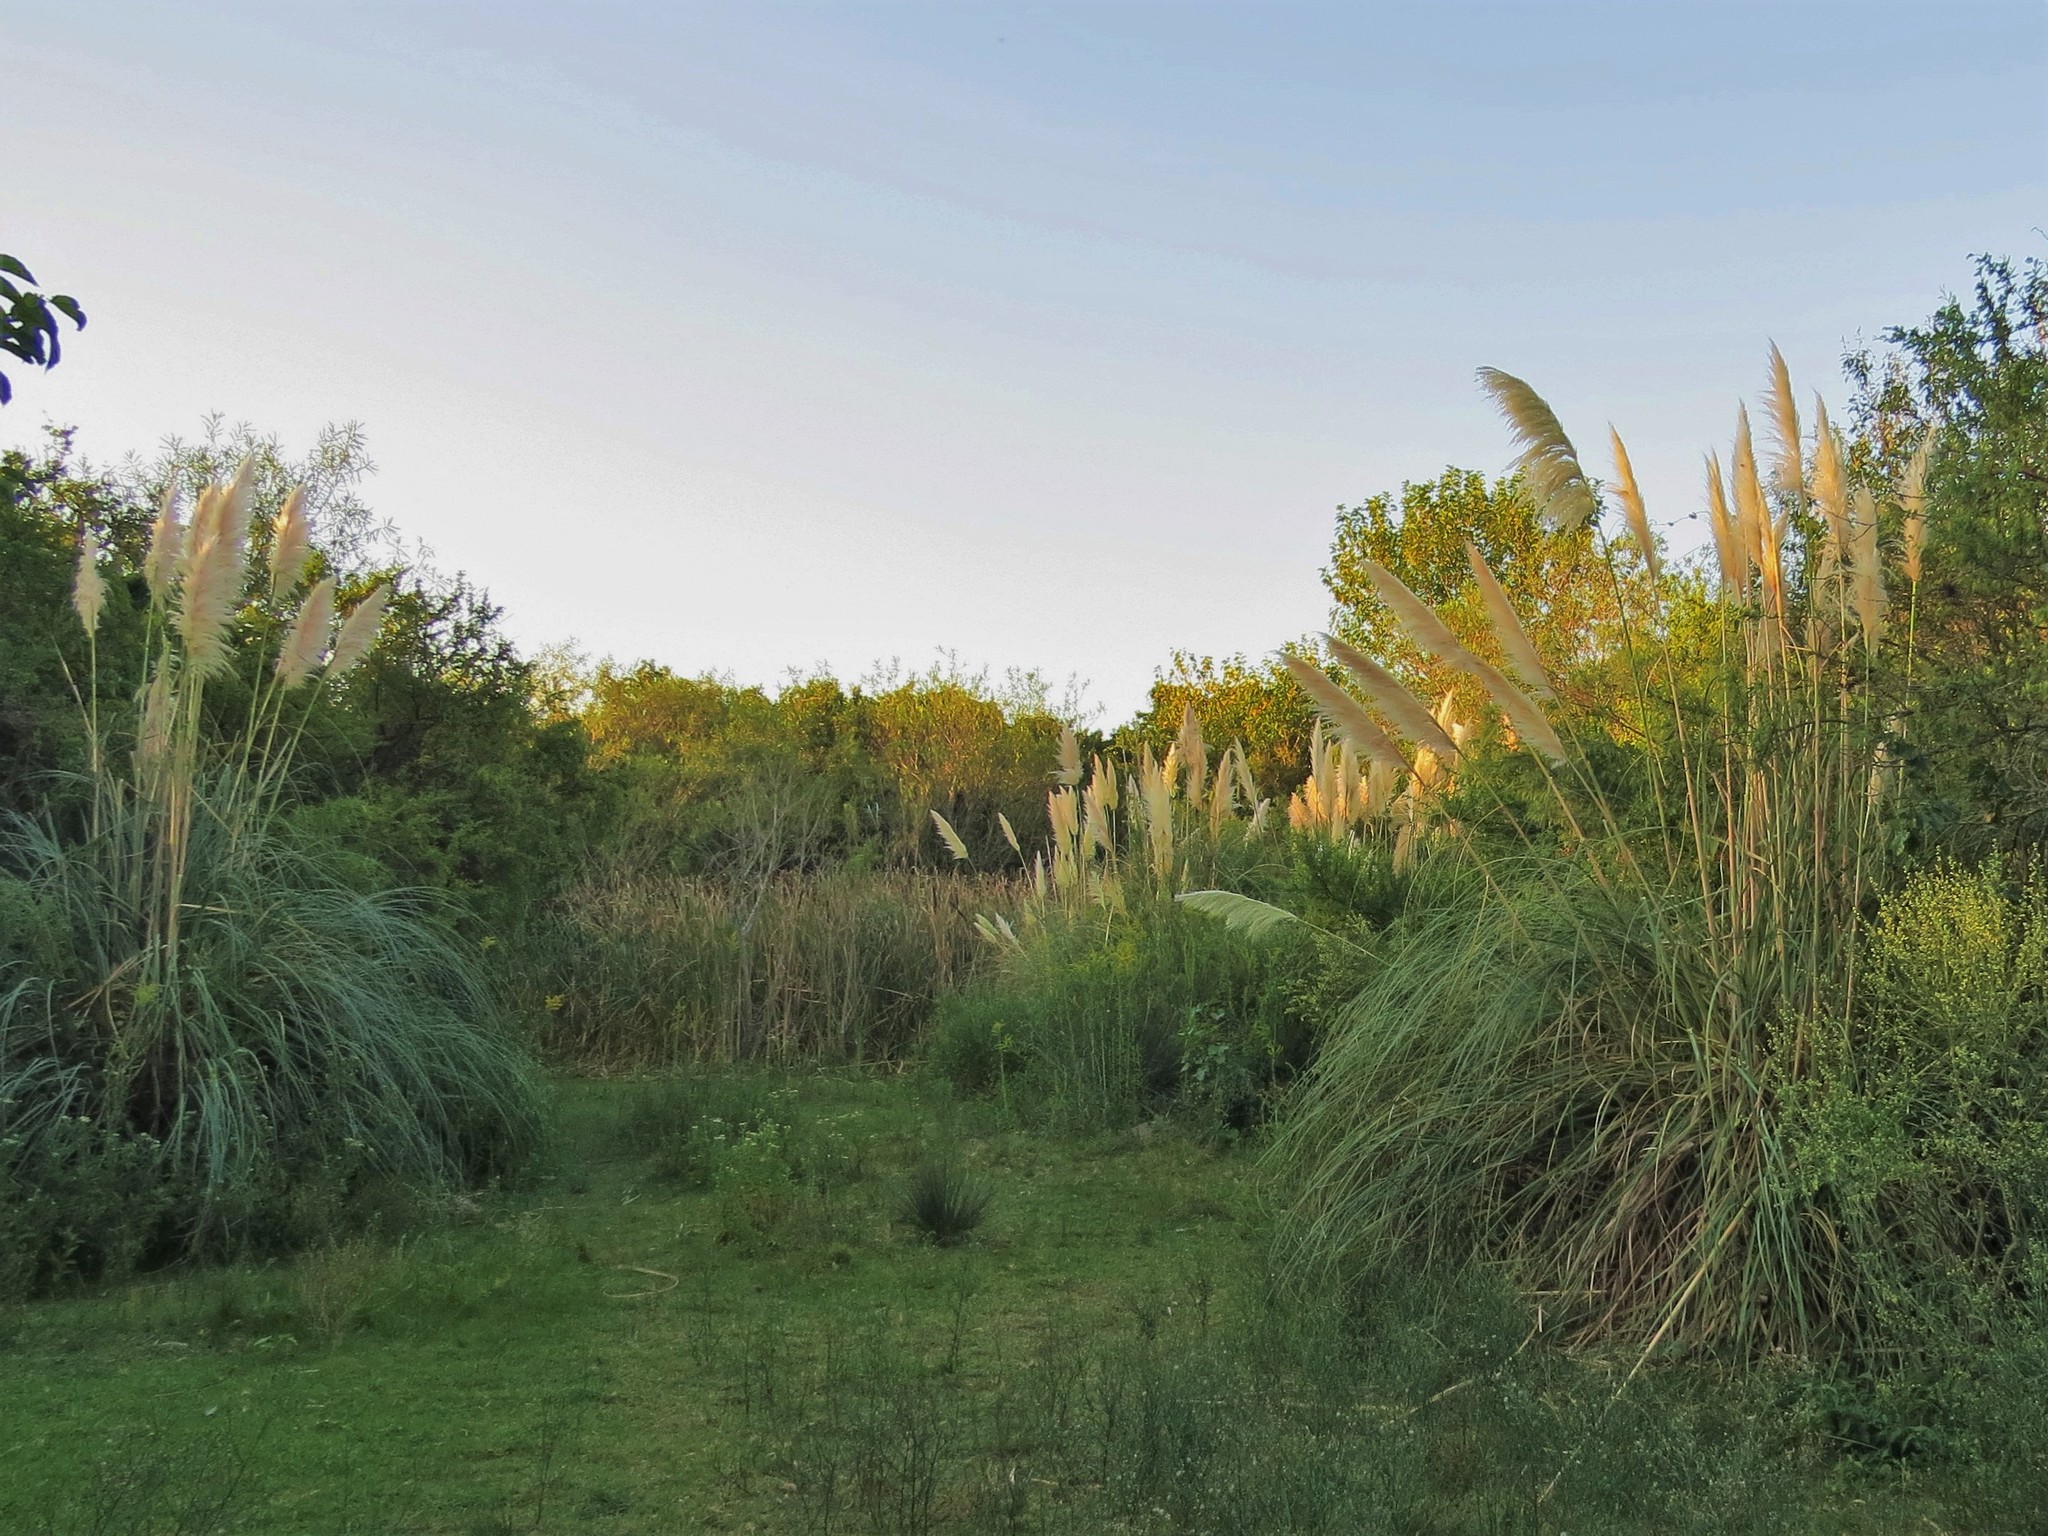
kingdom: Plantae
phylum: Tracheophyta
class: Liliopsida
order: Poales
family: Poaceae
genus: Cortaderia
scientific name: Cortaderia selloana
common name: Uruguayan pampas grass
